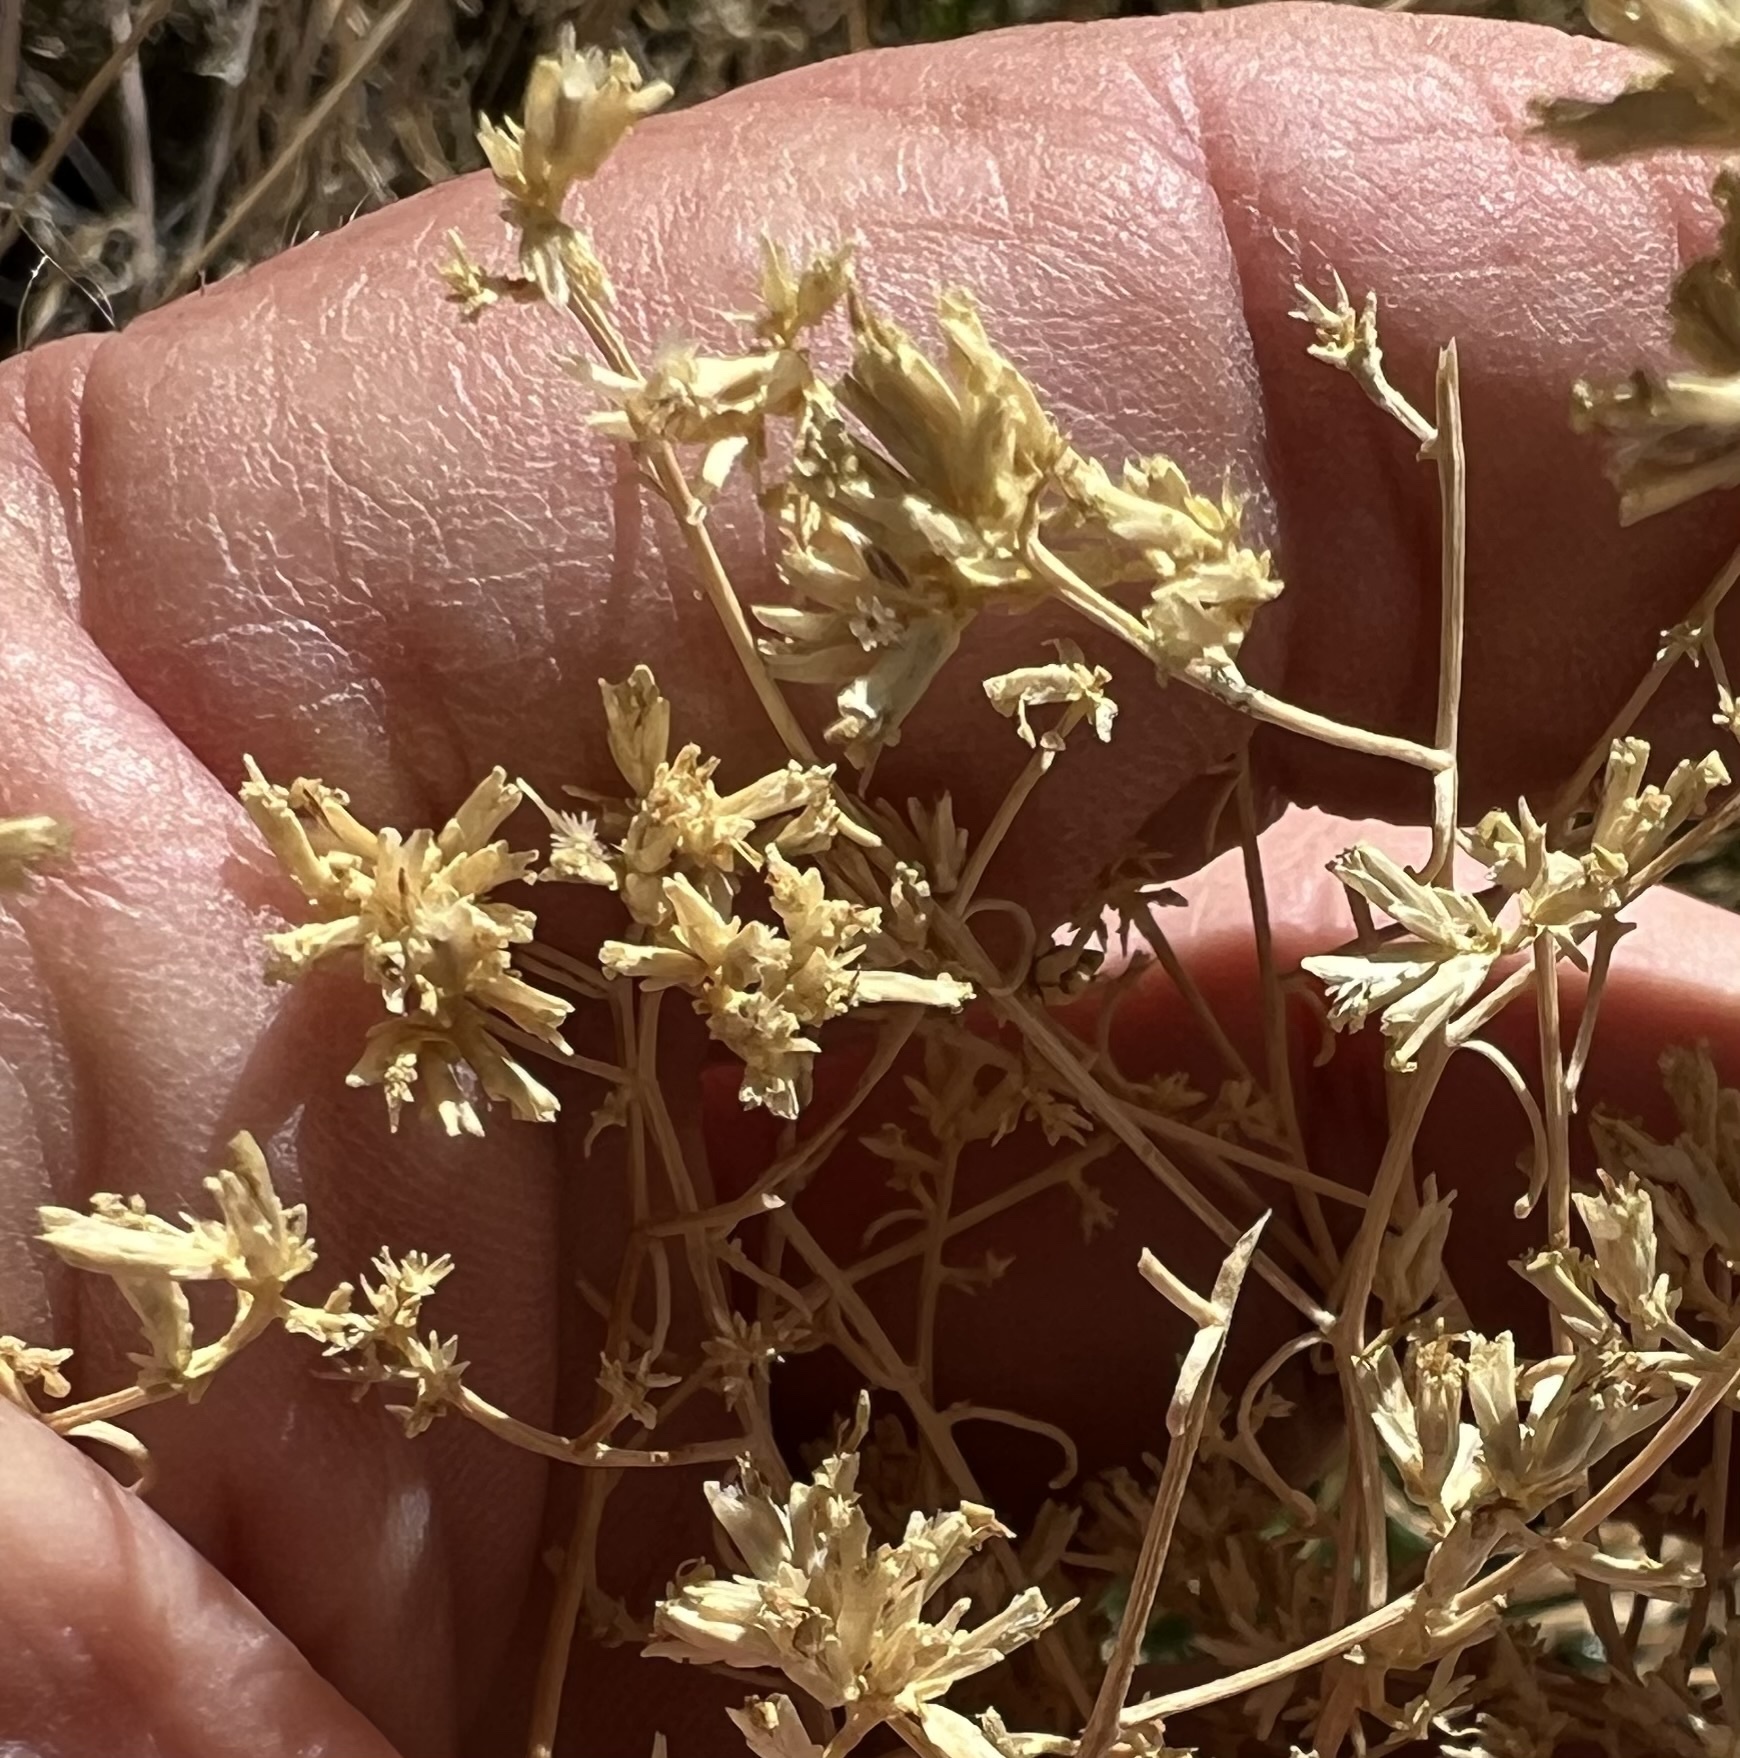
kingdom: Plantae
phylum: Tracheophyta
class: Magnoliopsida
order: Asterales
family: Asteraceae
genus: Gutierrezia
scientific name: Gutierrezia microcephala
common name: Thread snakeweed
